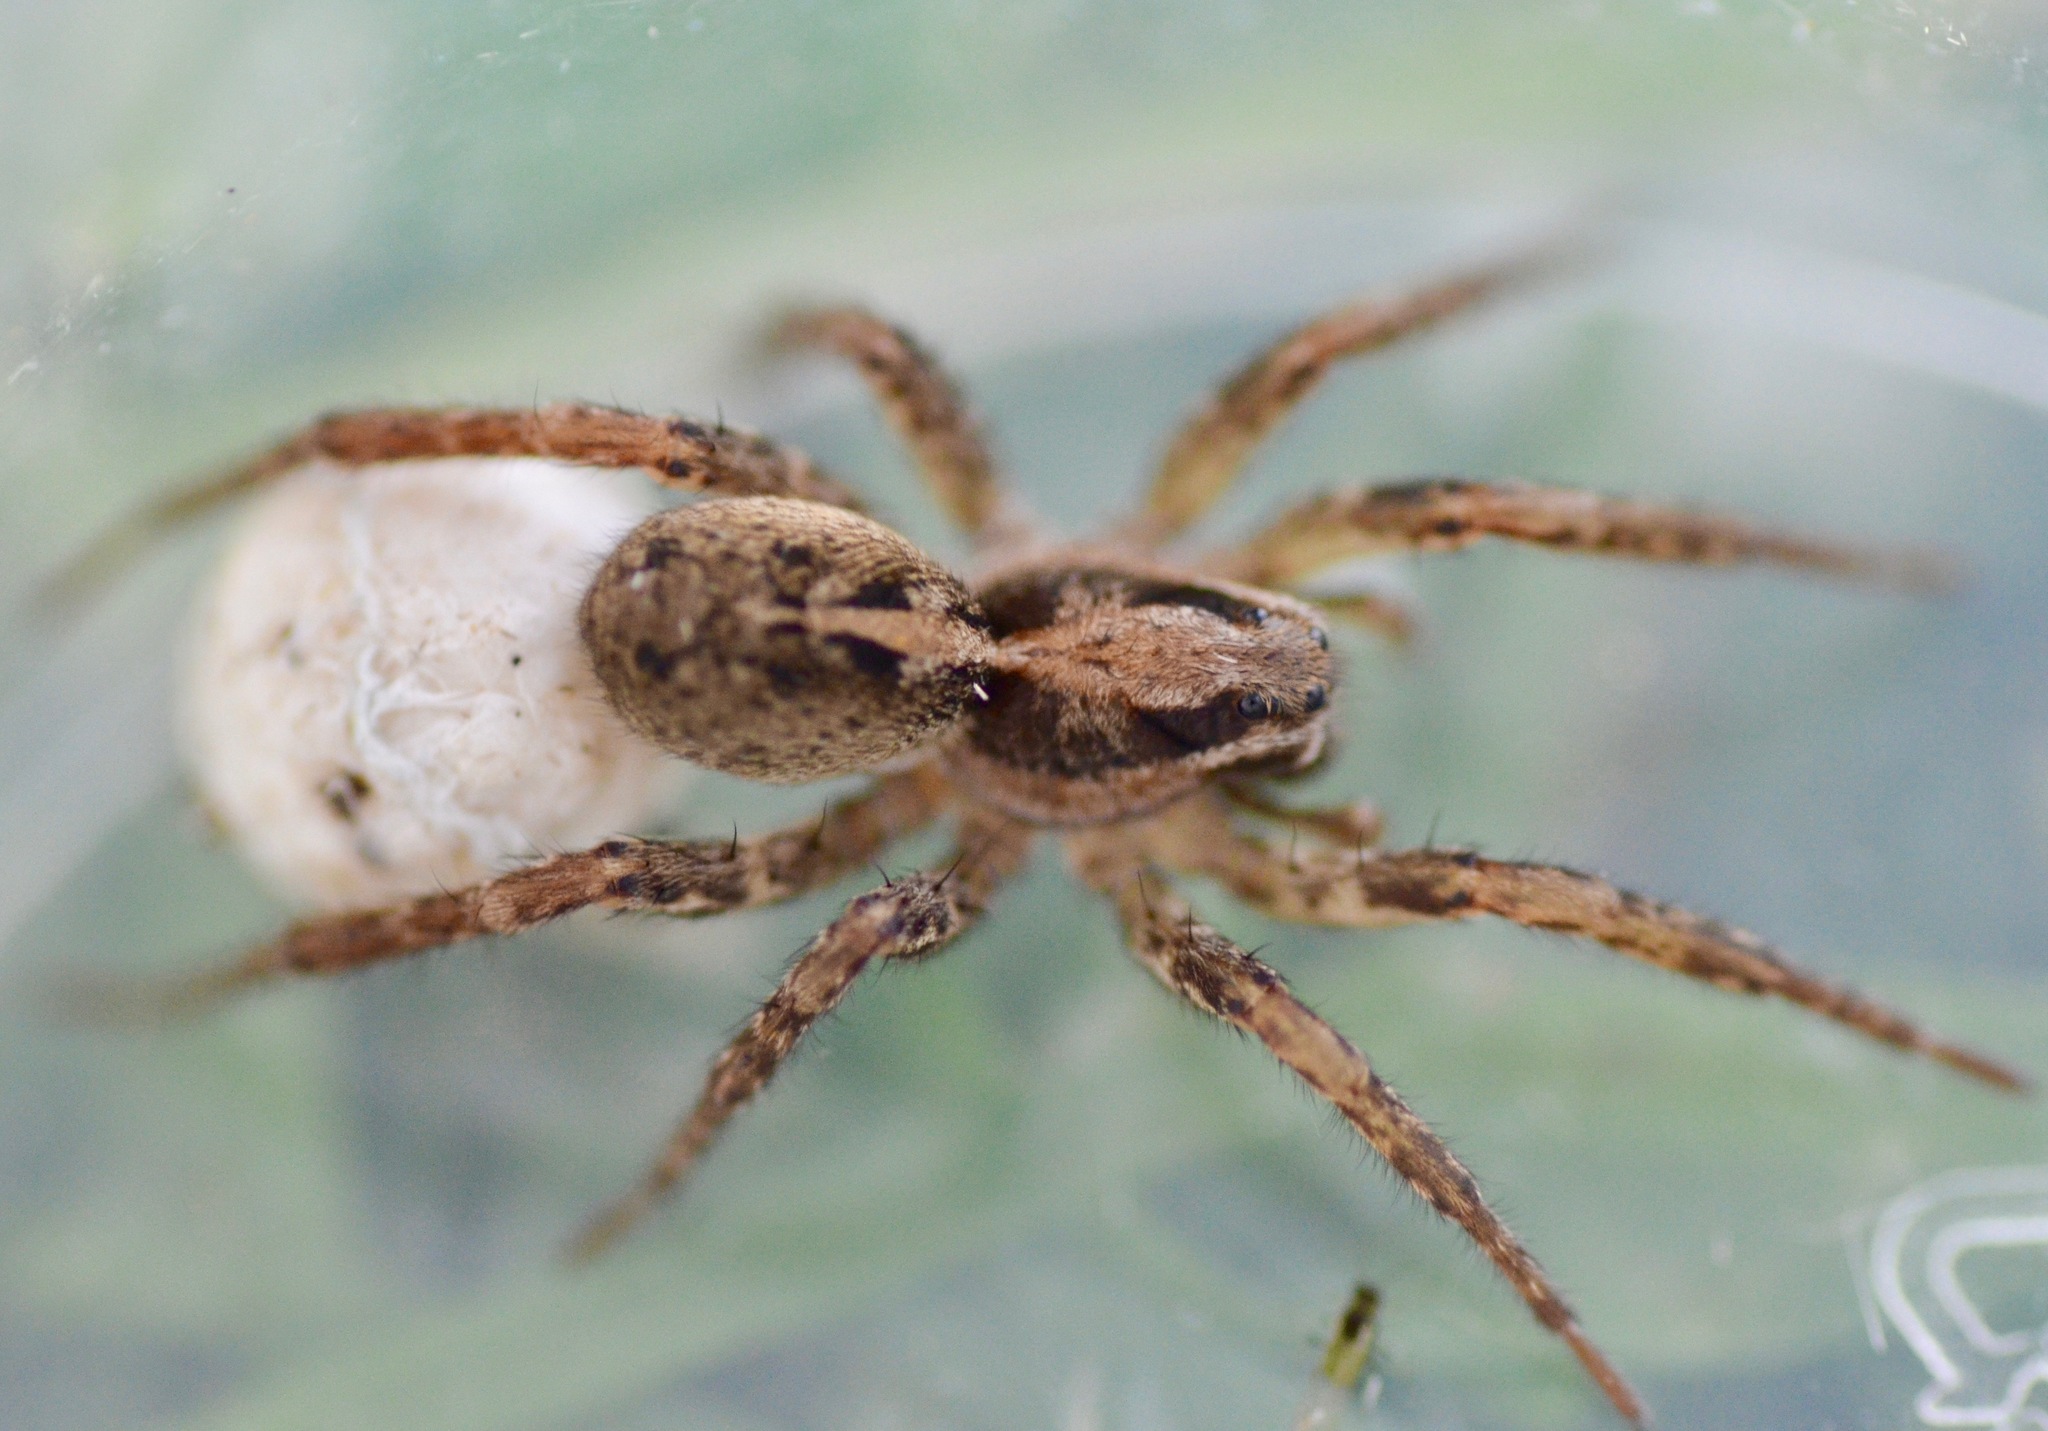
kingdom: Animalia
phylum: Arthropoda
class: Arachnida
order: Araneae
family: Lycosidae
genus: Anoteropsis
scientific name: Anoteropsis hilaris
